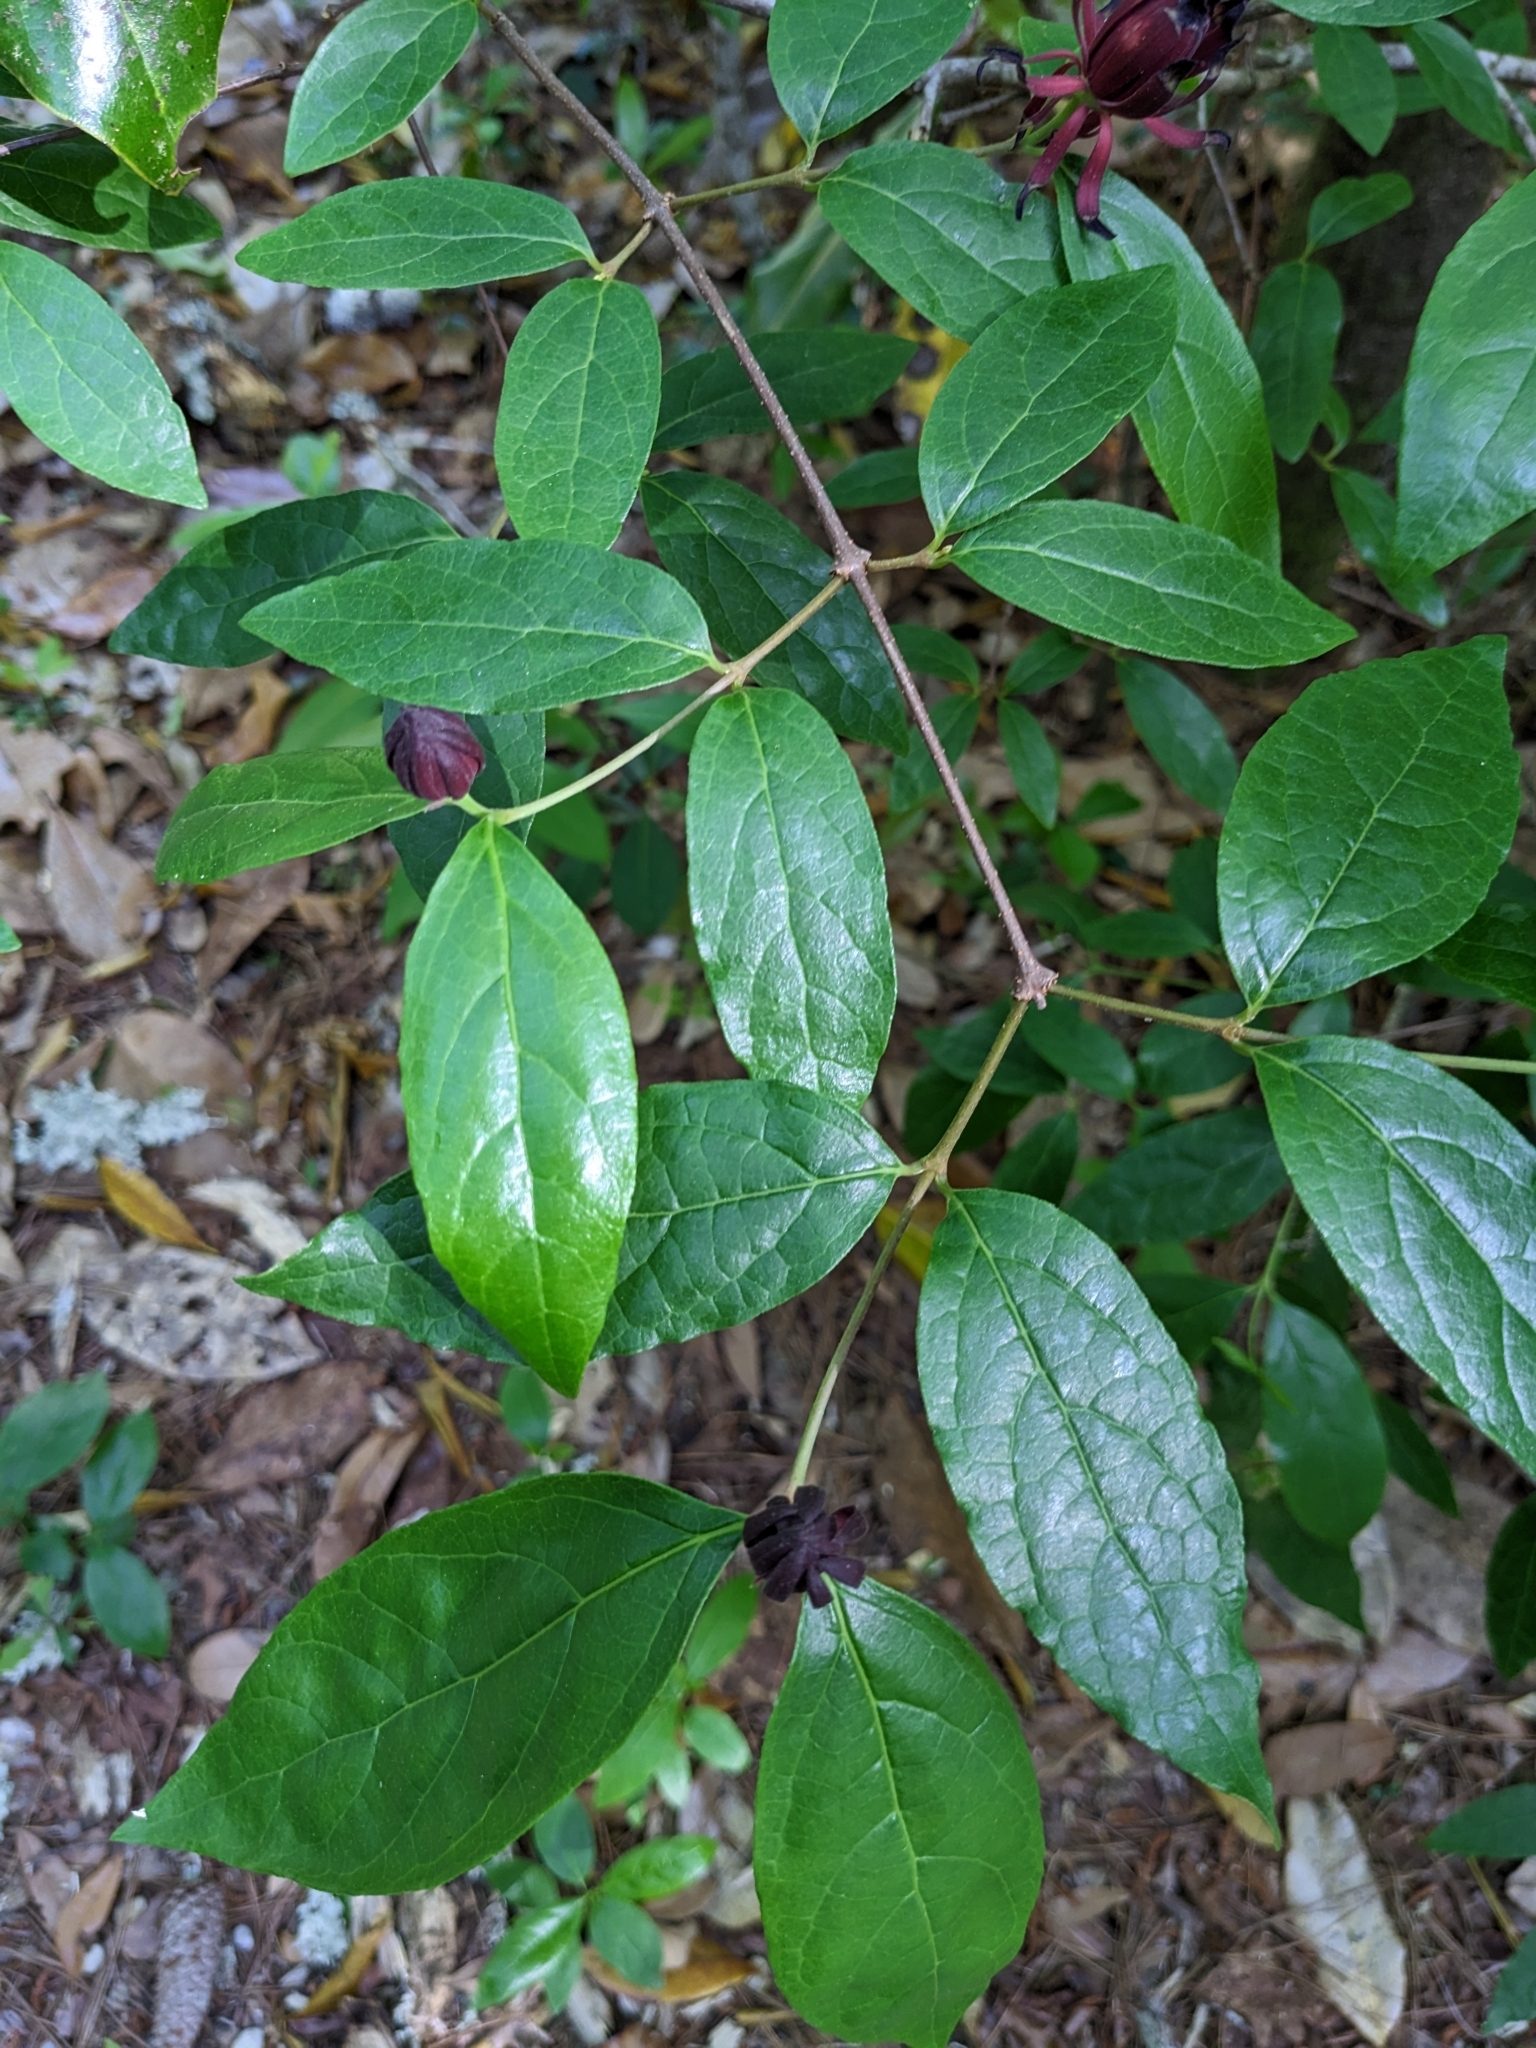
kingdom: Plantae
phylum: Tracheophyta
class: Magnoliopsida
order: Laurales
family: Calycanthaceae
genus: Calycanthus
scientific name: Calycanthus floridus
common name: Carolina-allspice
